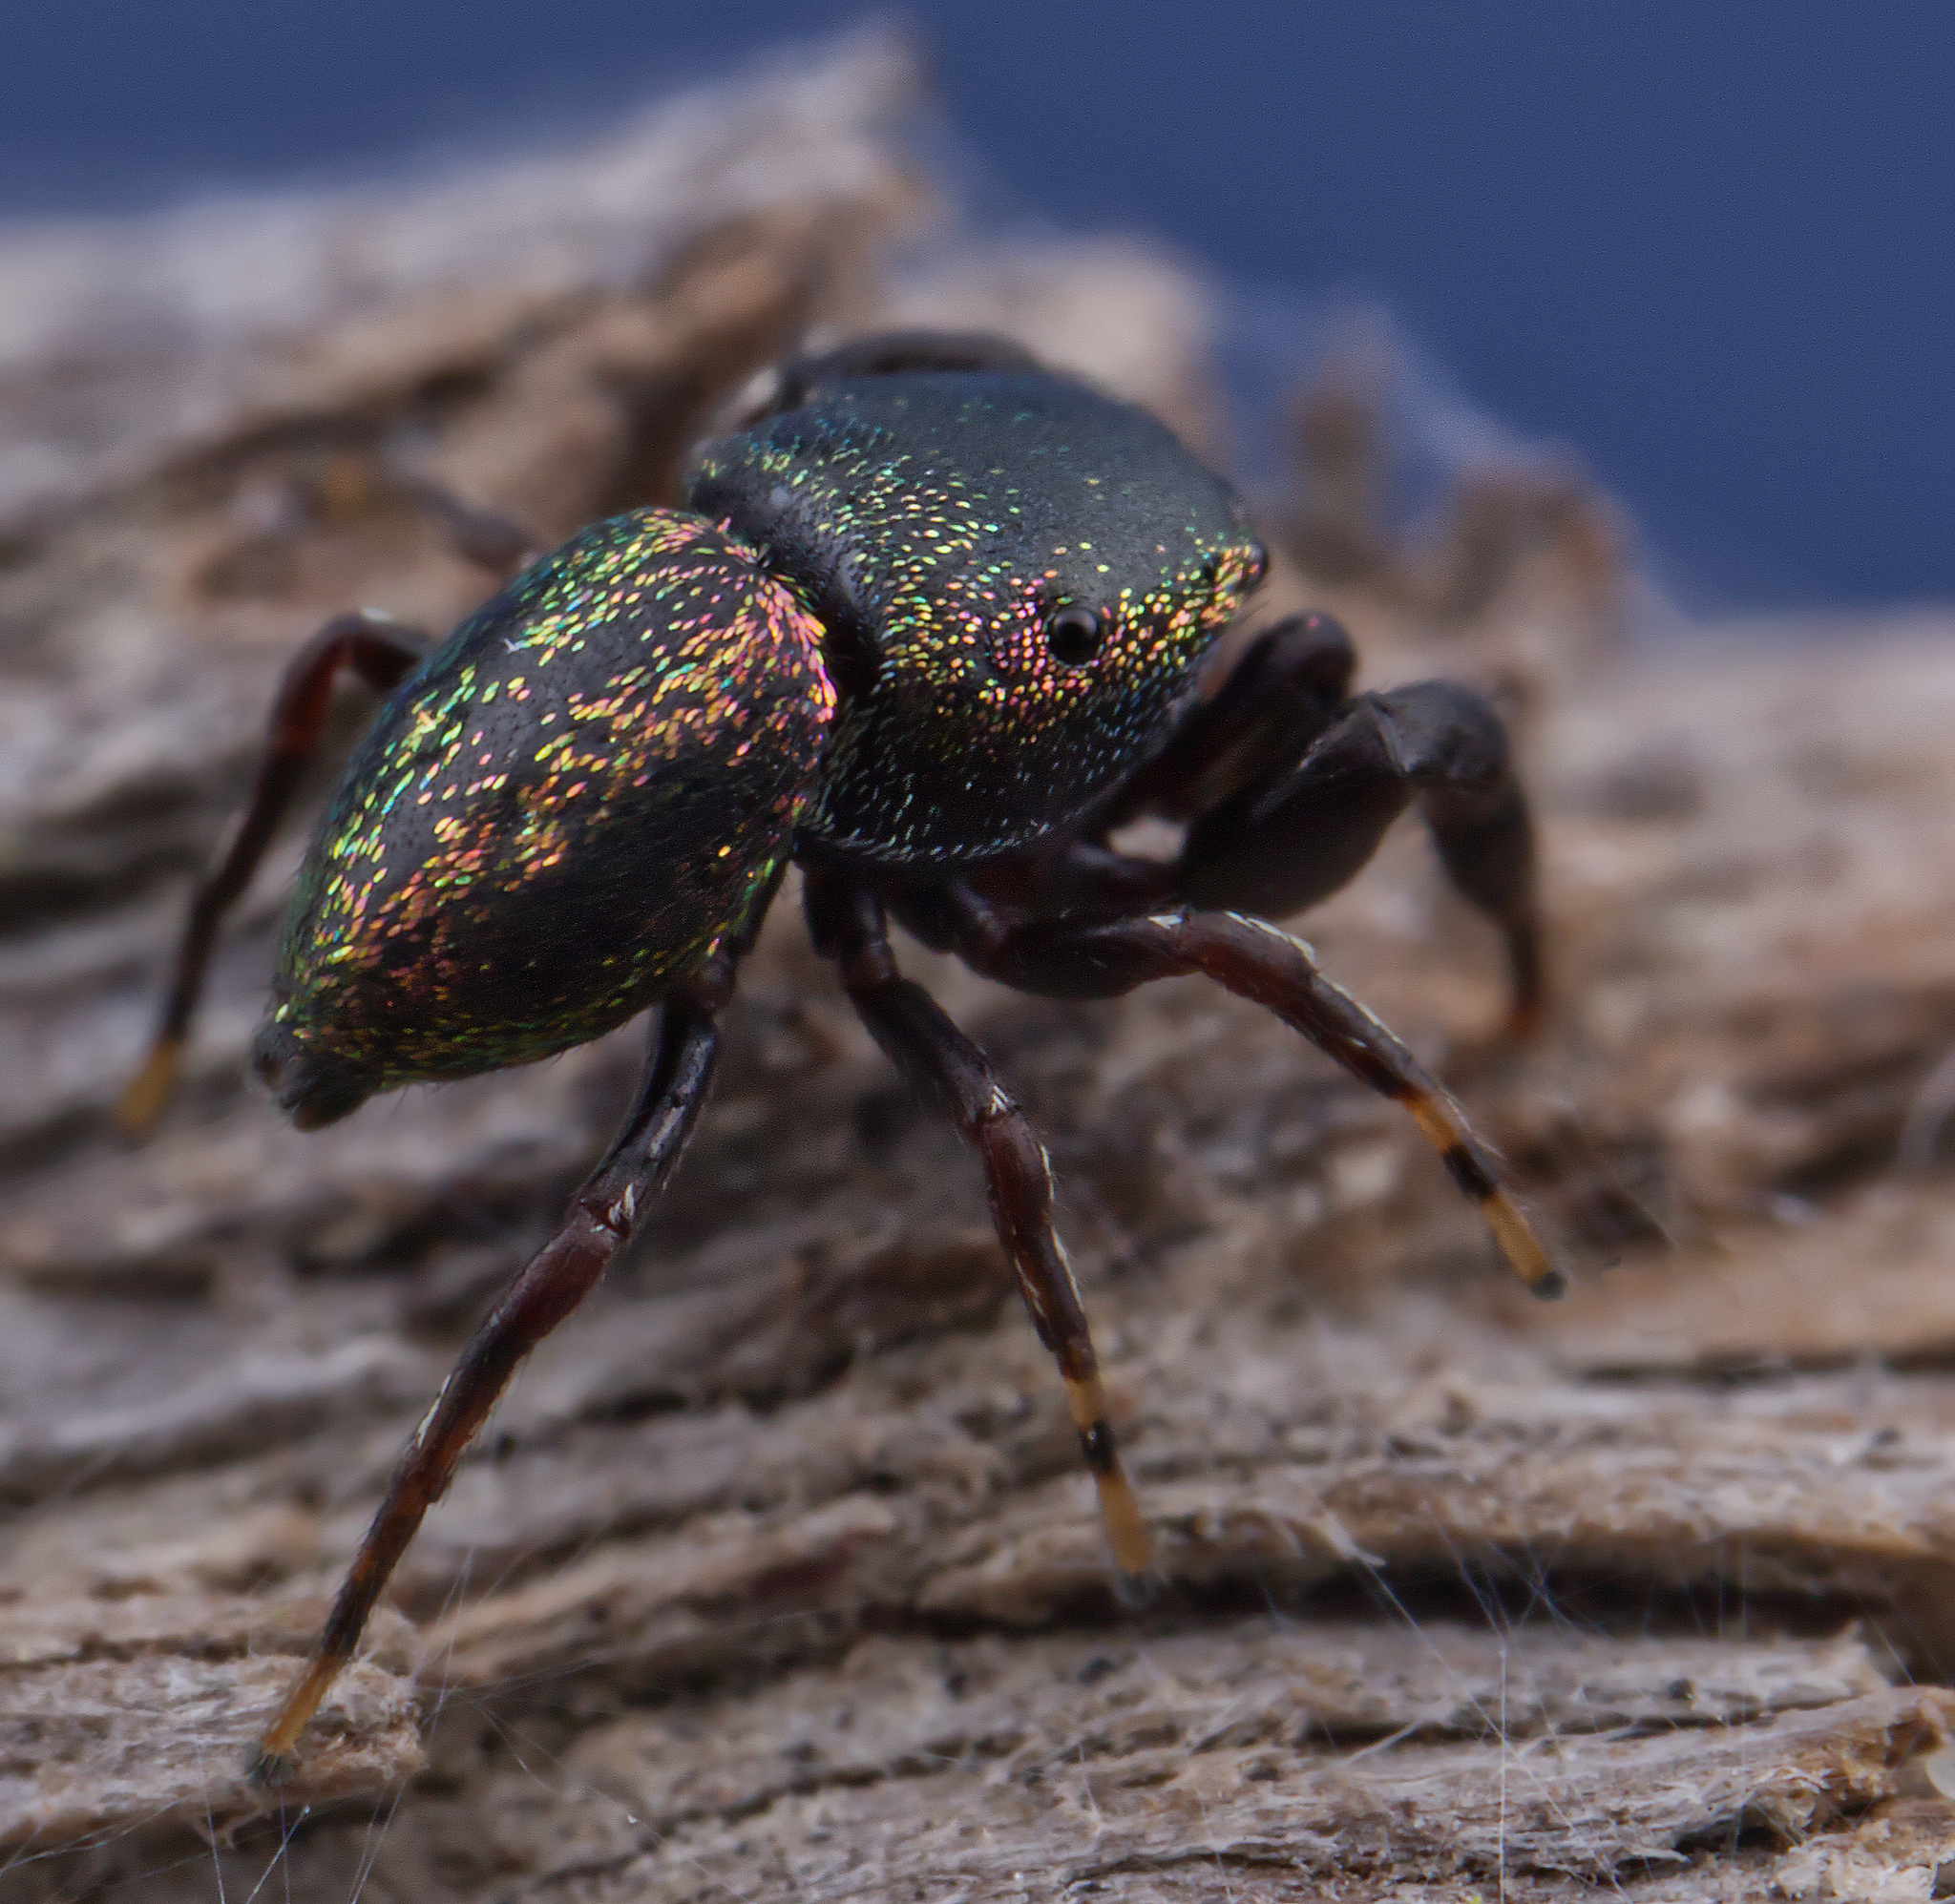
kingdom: Animalia
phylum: Arthropoda
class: Arachnida
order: Araneae
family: Salticidae
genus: Sassacus
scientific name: Sassacus cyaneus
